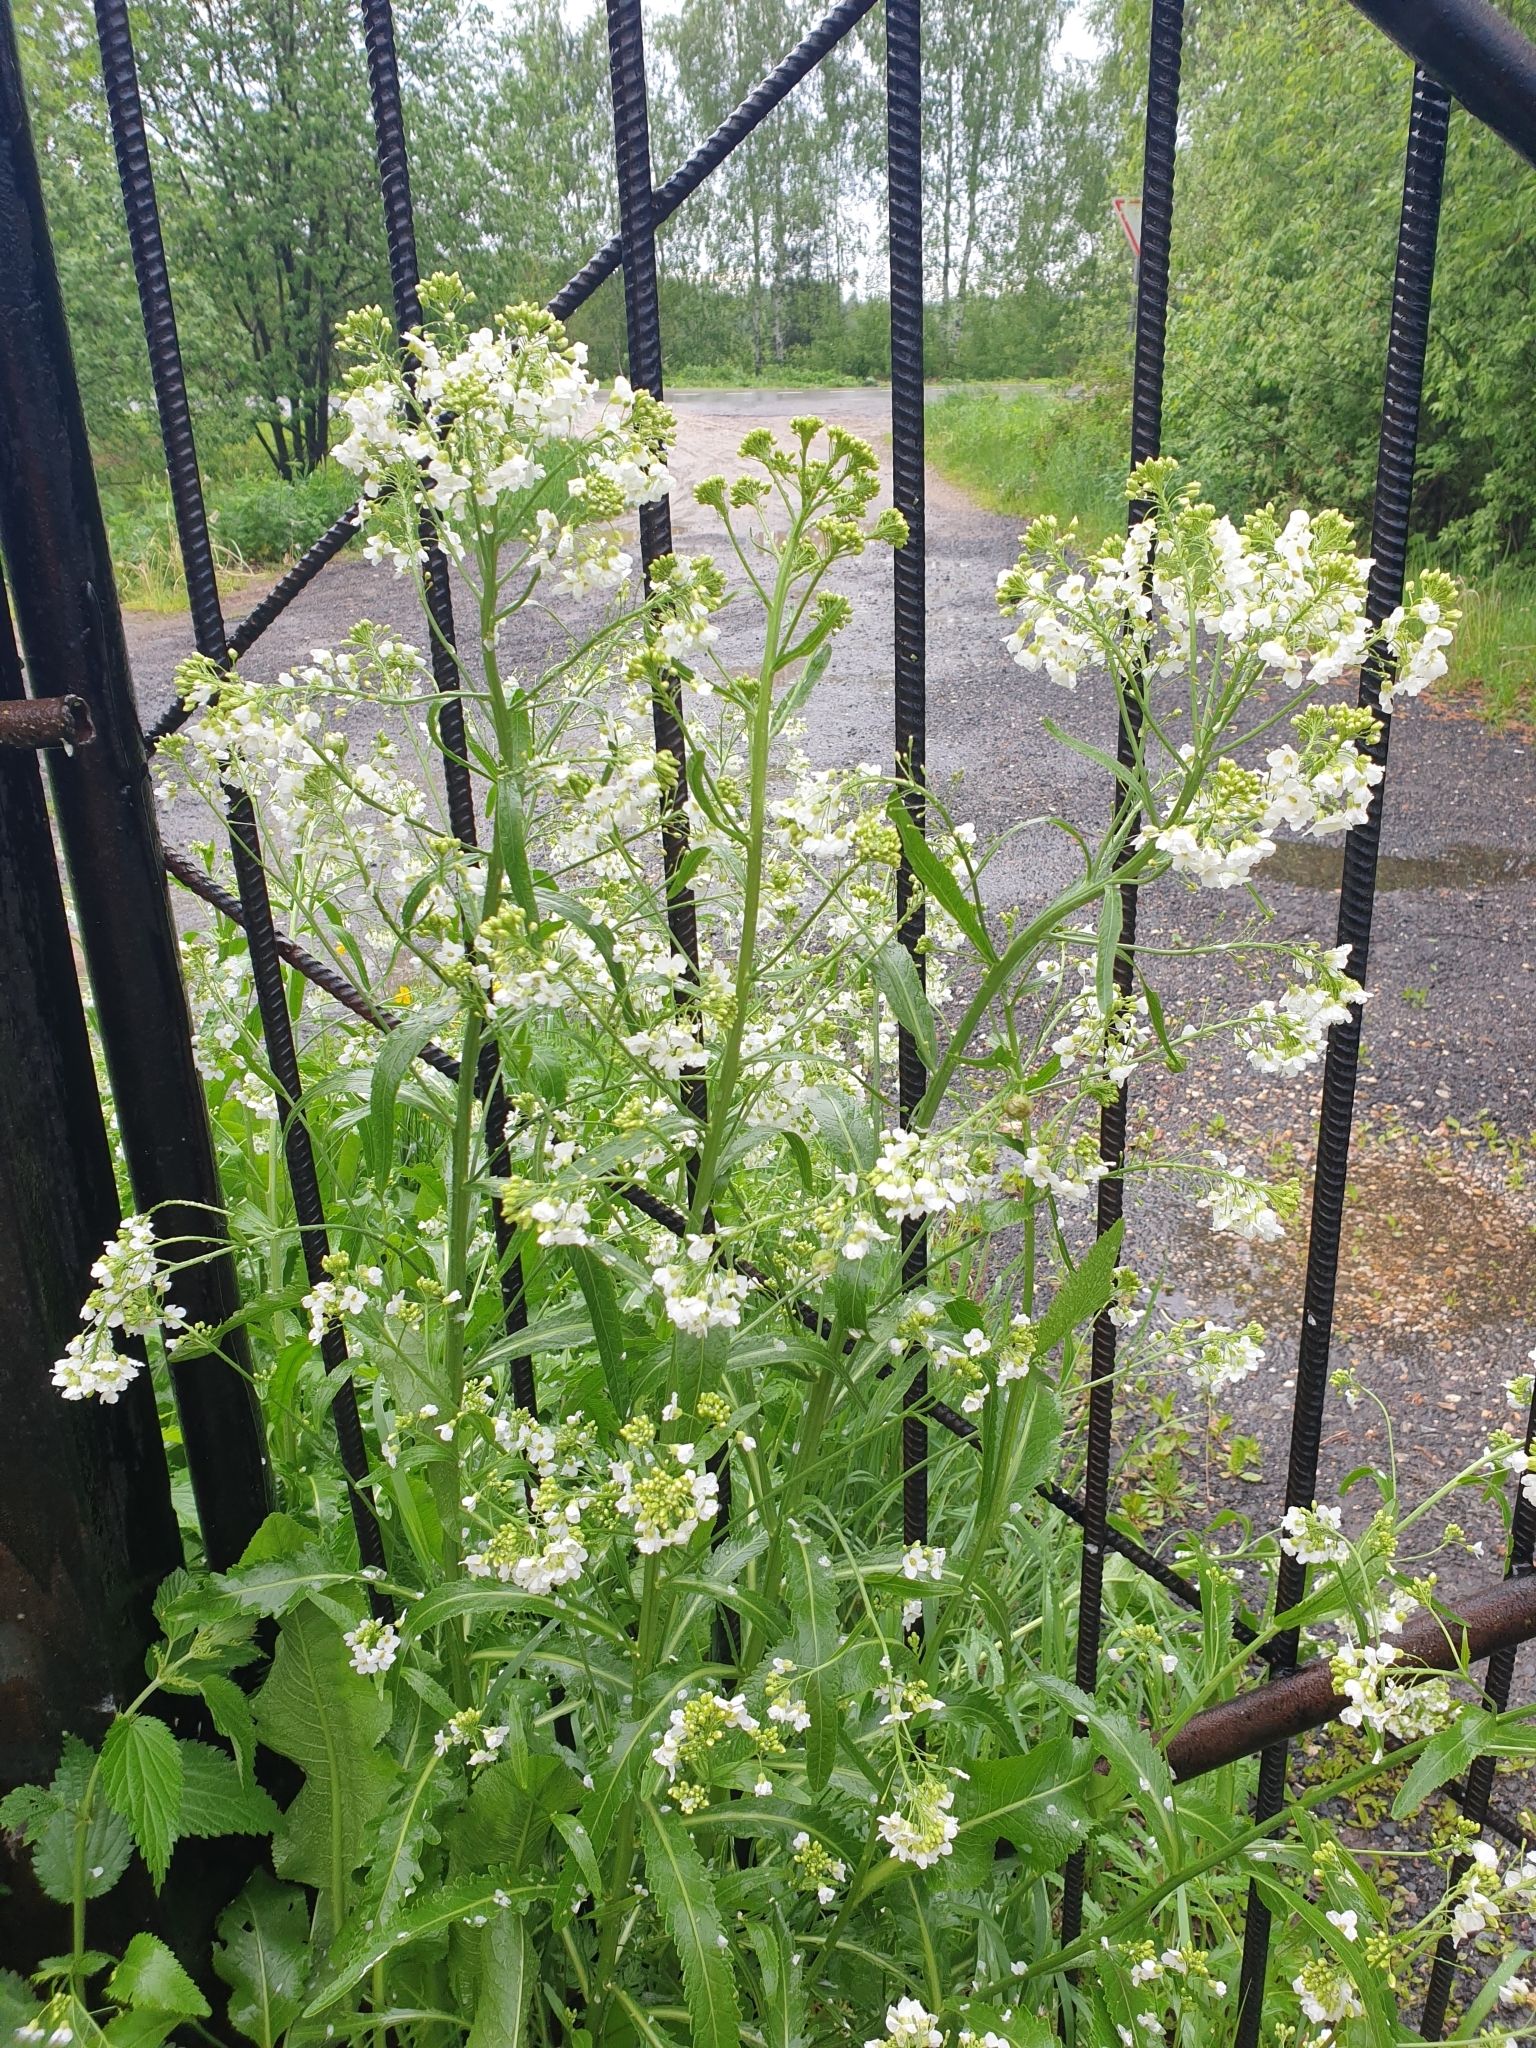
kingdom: Plantae
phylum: Tracheophyta
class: Magnoliopsida
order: Brassicales
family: Brassicaceae
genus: Armoracia
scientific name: Armoracia rusticana
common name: Horseradish
